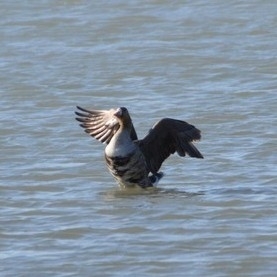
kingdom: Animalia
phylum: Chordata
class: Aves
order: Anseriformes
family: Anatidae
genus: Anser
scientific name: Anser albifrons
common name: Greater white-fronted goose
